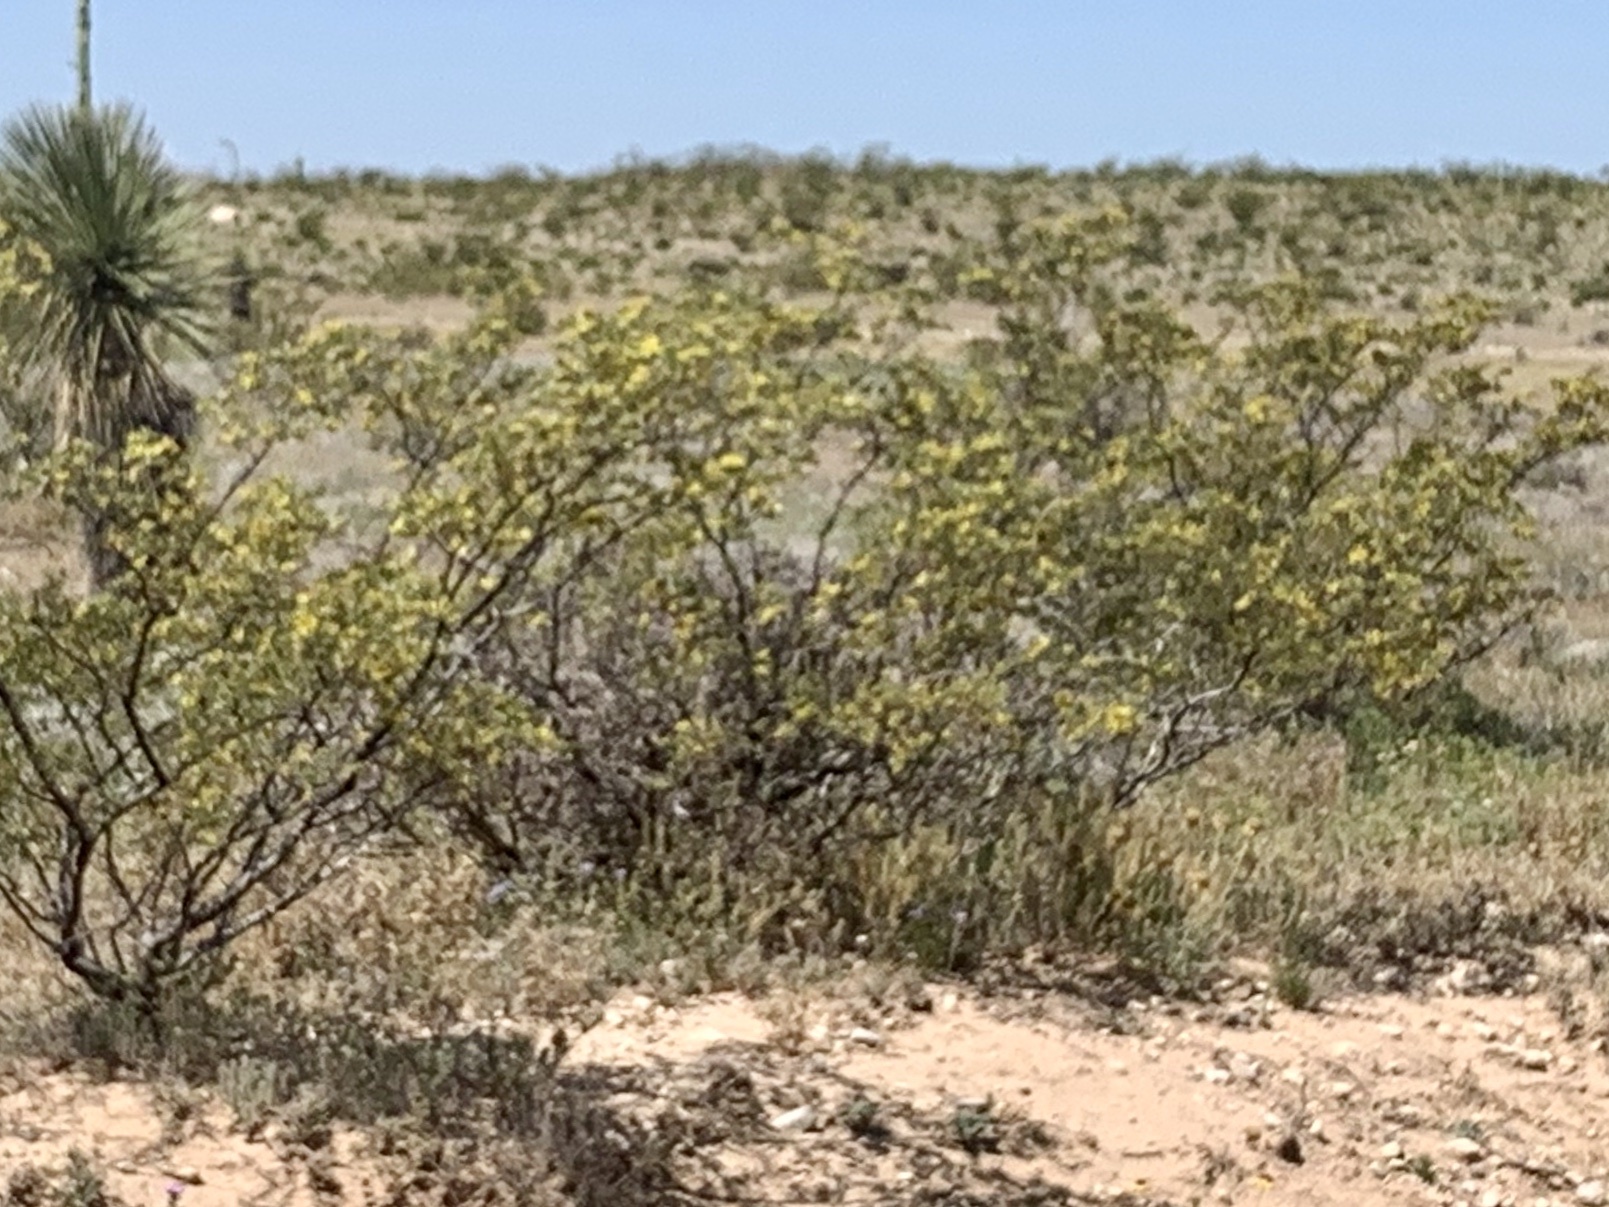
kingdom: Plantae
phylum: Tracheophyta
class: Magnoliopsida
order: Zygophyllales
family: Zygophyllaceae
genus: Larrea
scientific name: Larrea tridentata
